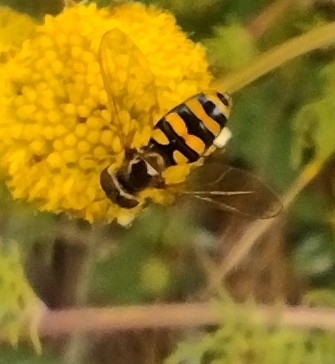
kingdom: Animalia
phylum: Arthropoda
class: Insecta
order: Diptera
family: Syrphidae
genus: Eupeodes
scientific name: Eupeodes
